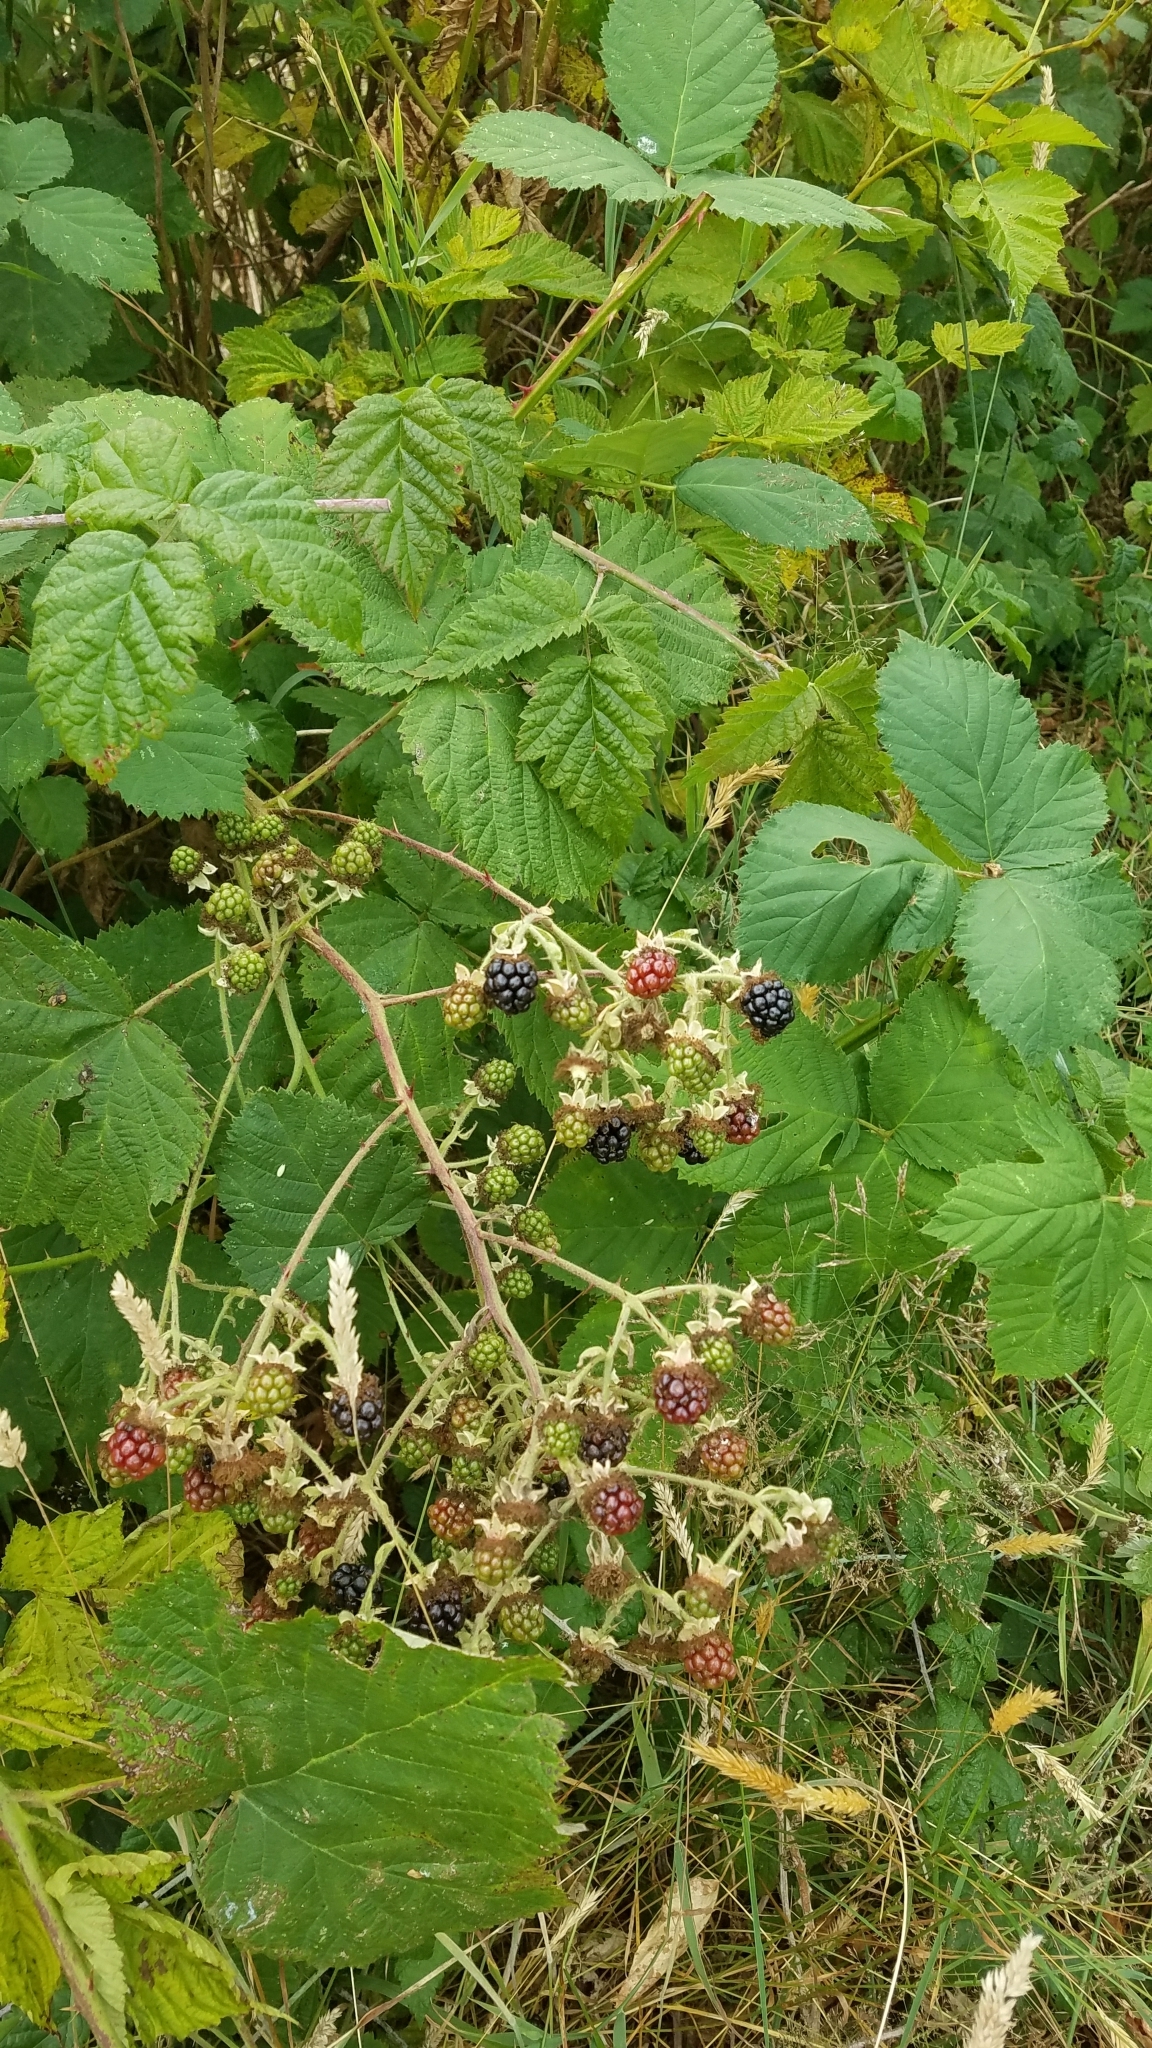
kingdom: Plantae
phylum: Tracheophyta
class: Magnoliopsida
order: Rosales
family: Rosaceae
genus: Rubus
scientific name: Rubus armeniacus
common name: Himalayan blackberry
